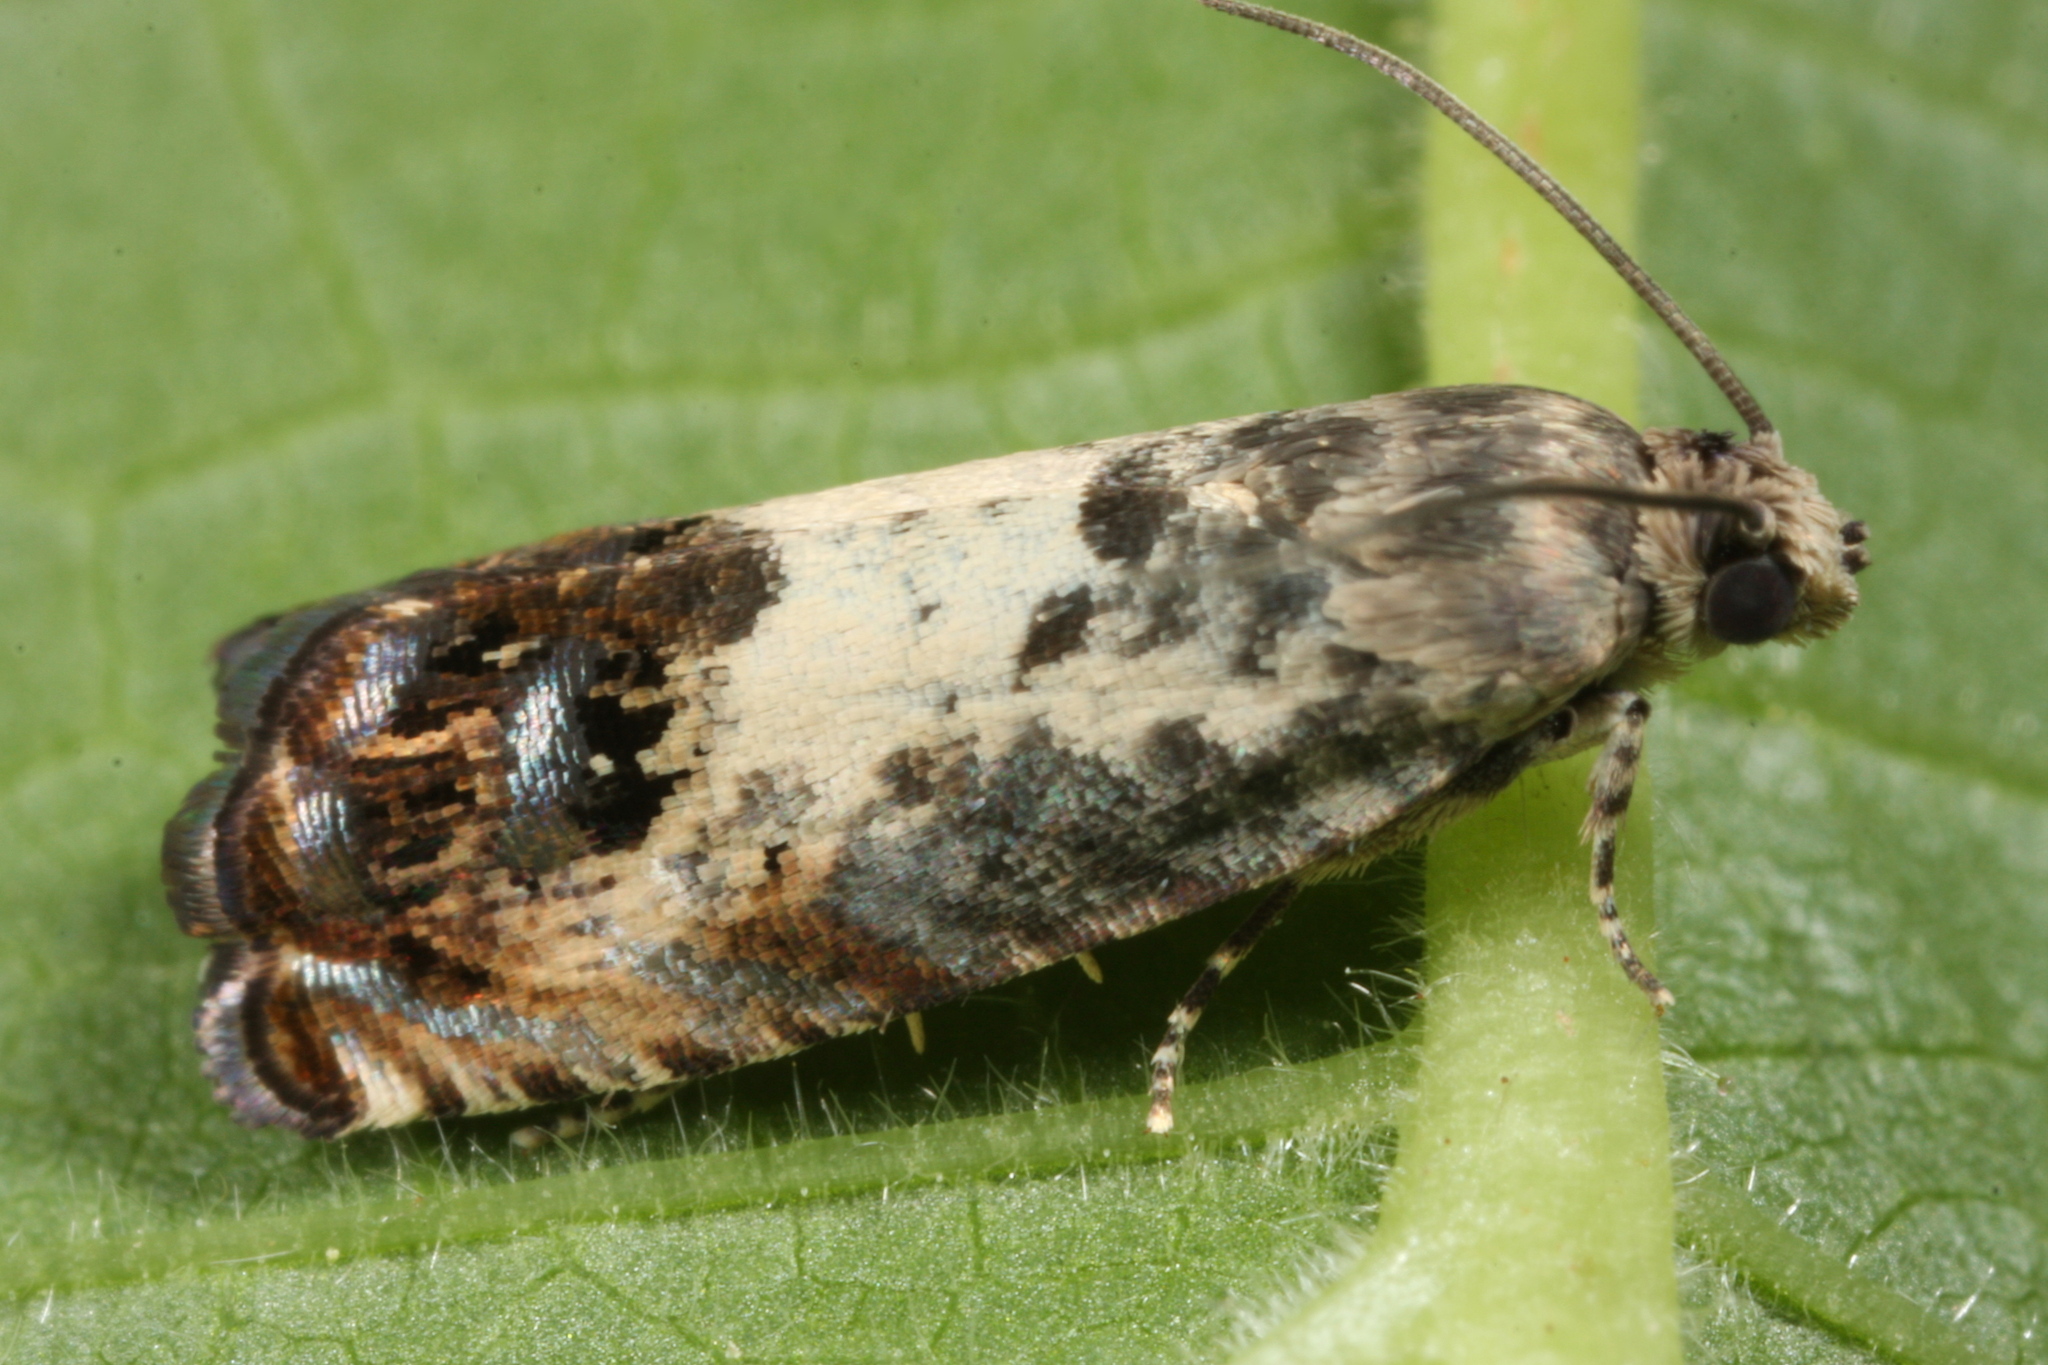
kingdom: Animalia
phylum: Arthropoda
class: Insecta
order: Lepidoptera
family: Tortricidae
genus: Pammene
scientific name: Pammene fasciana
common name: Acorn piercer
